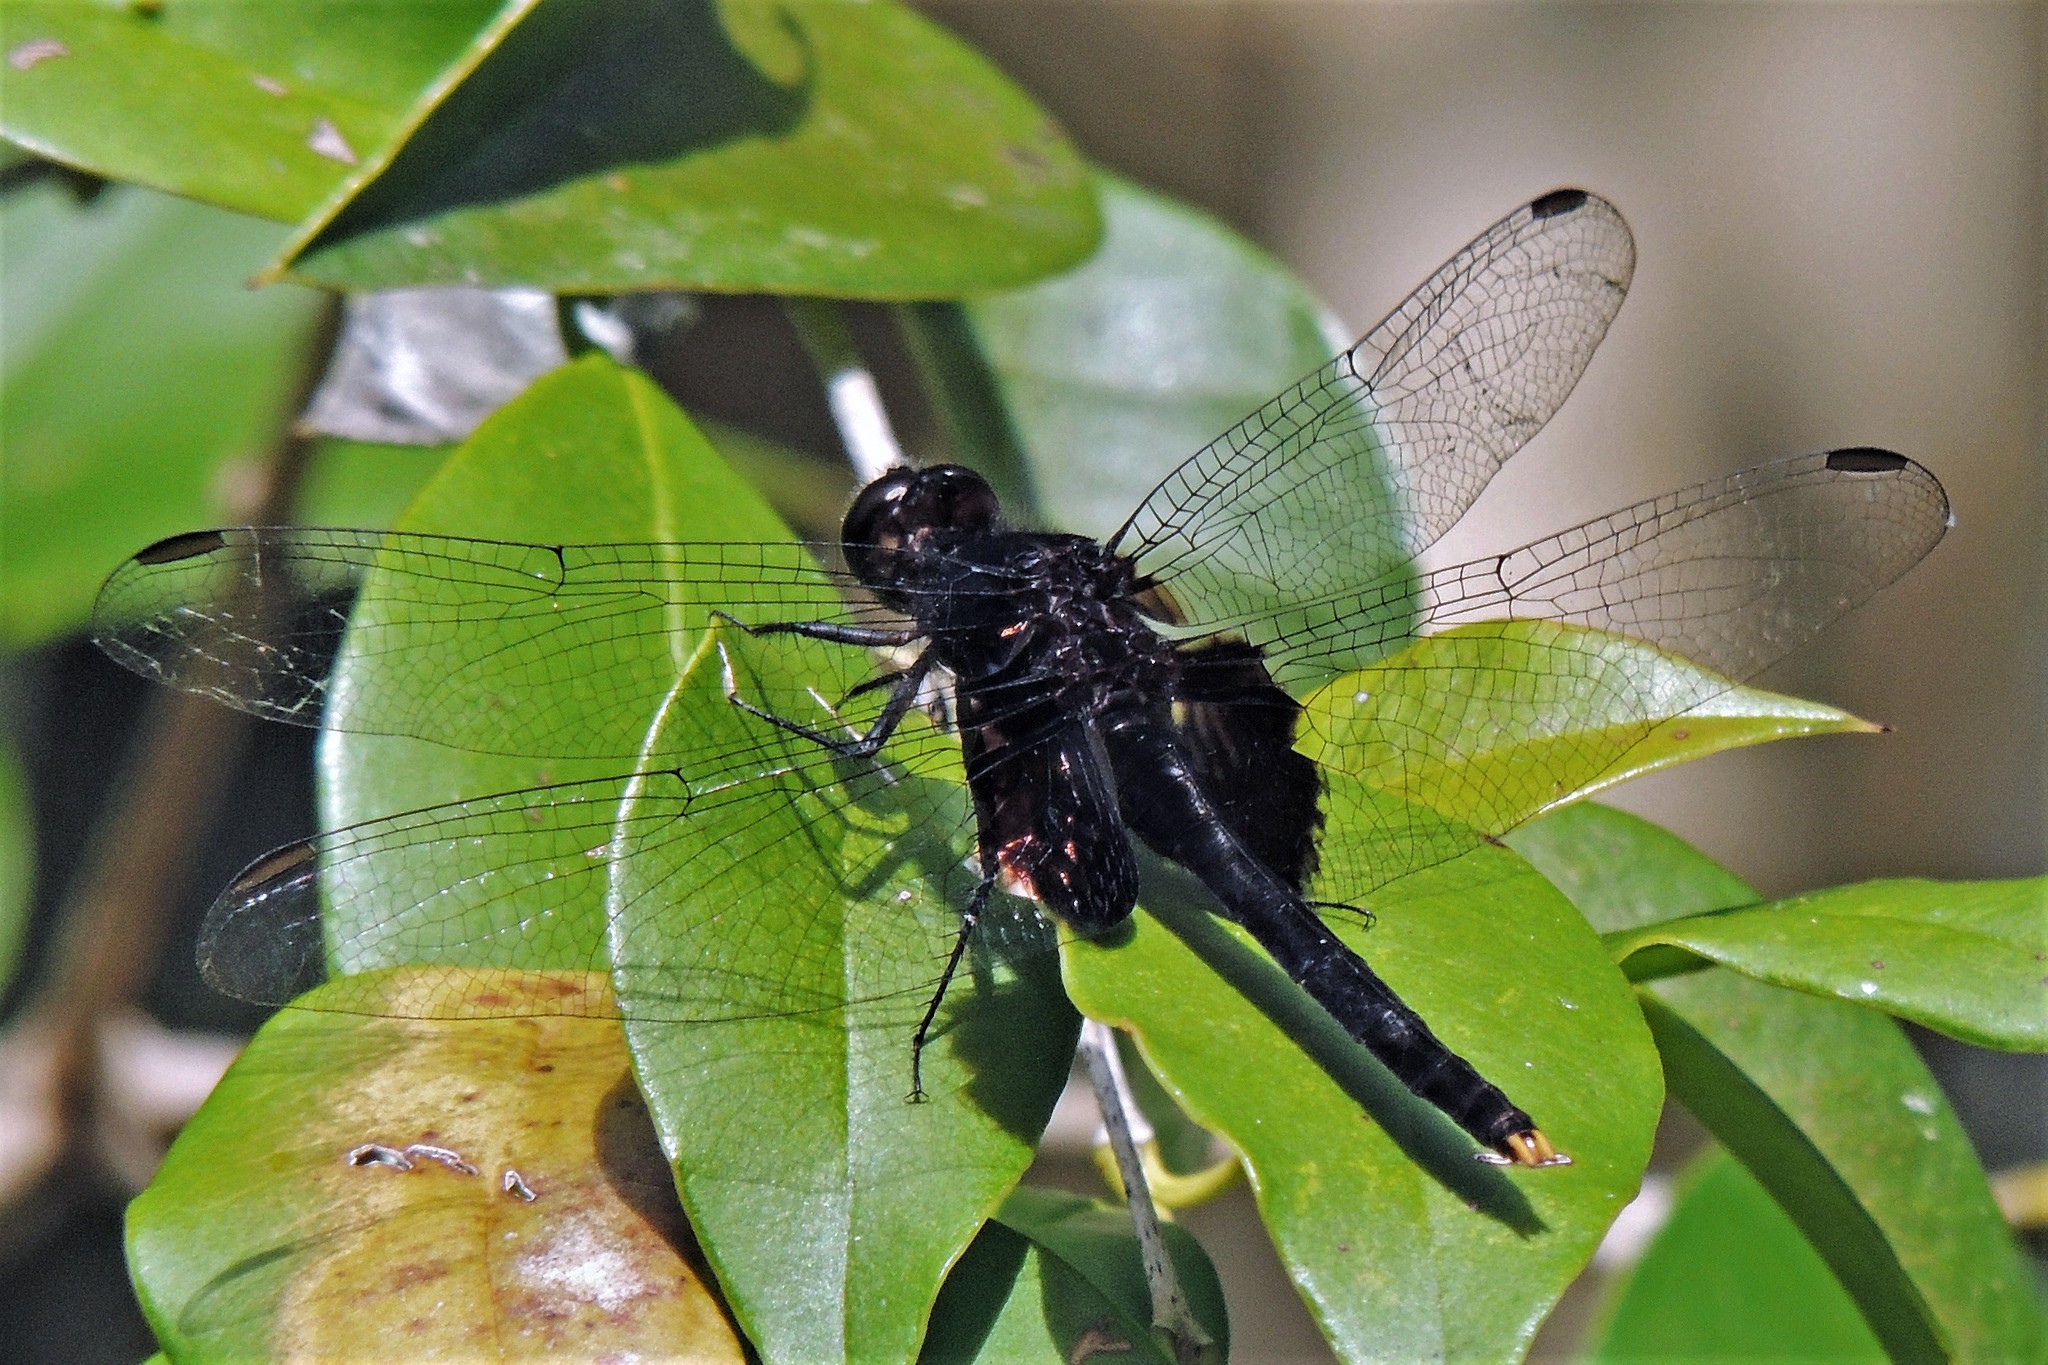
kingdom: Animalia
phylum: Arthropoda
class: Insecta
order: Odonata
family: Libellulidae
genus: Erythemis
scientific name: Erythemis attala
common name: Black pondhawk
